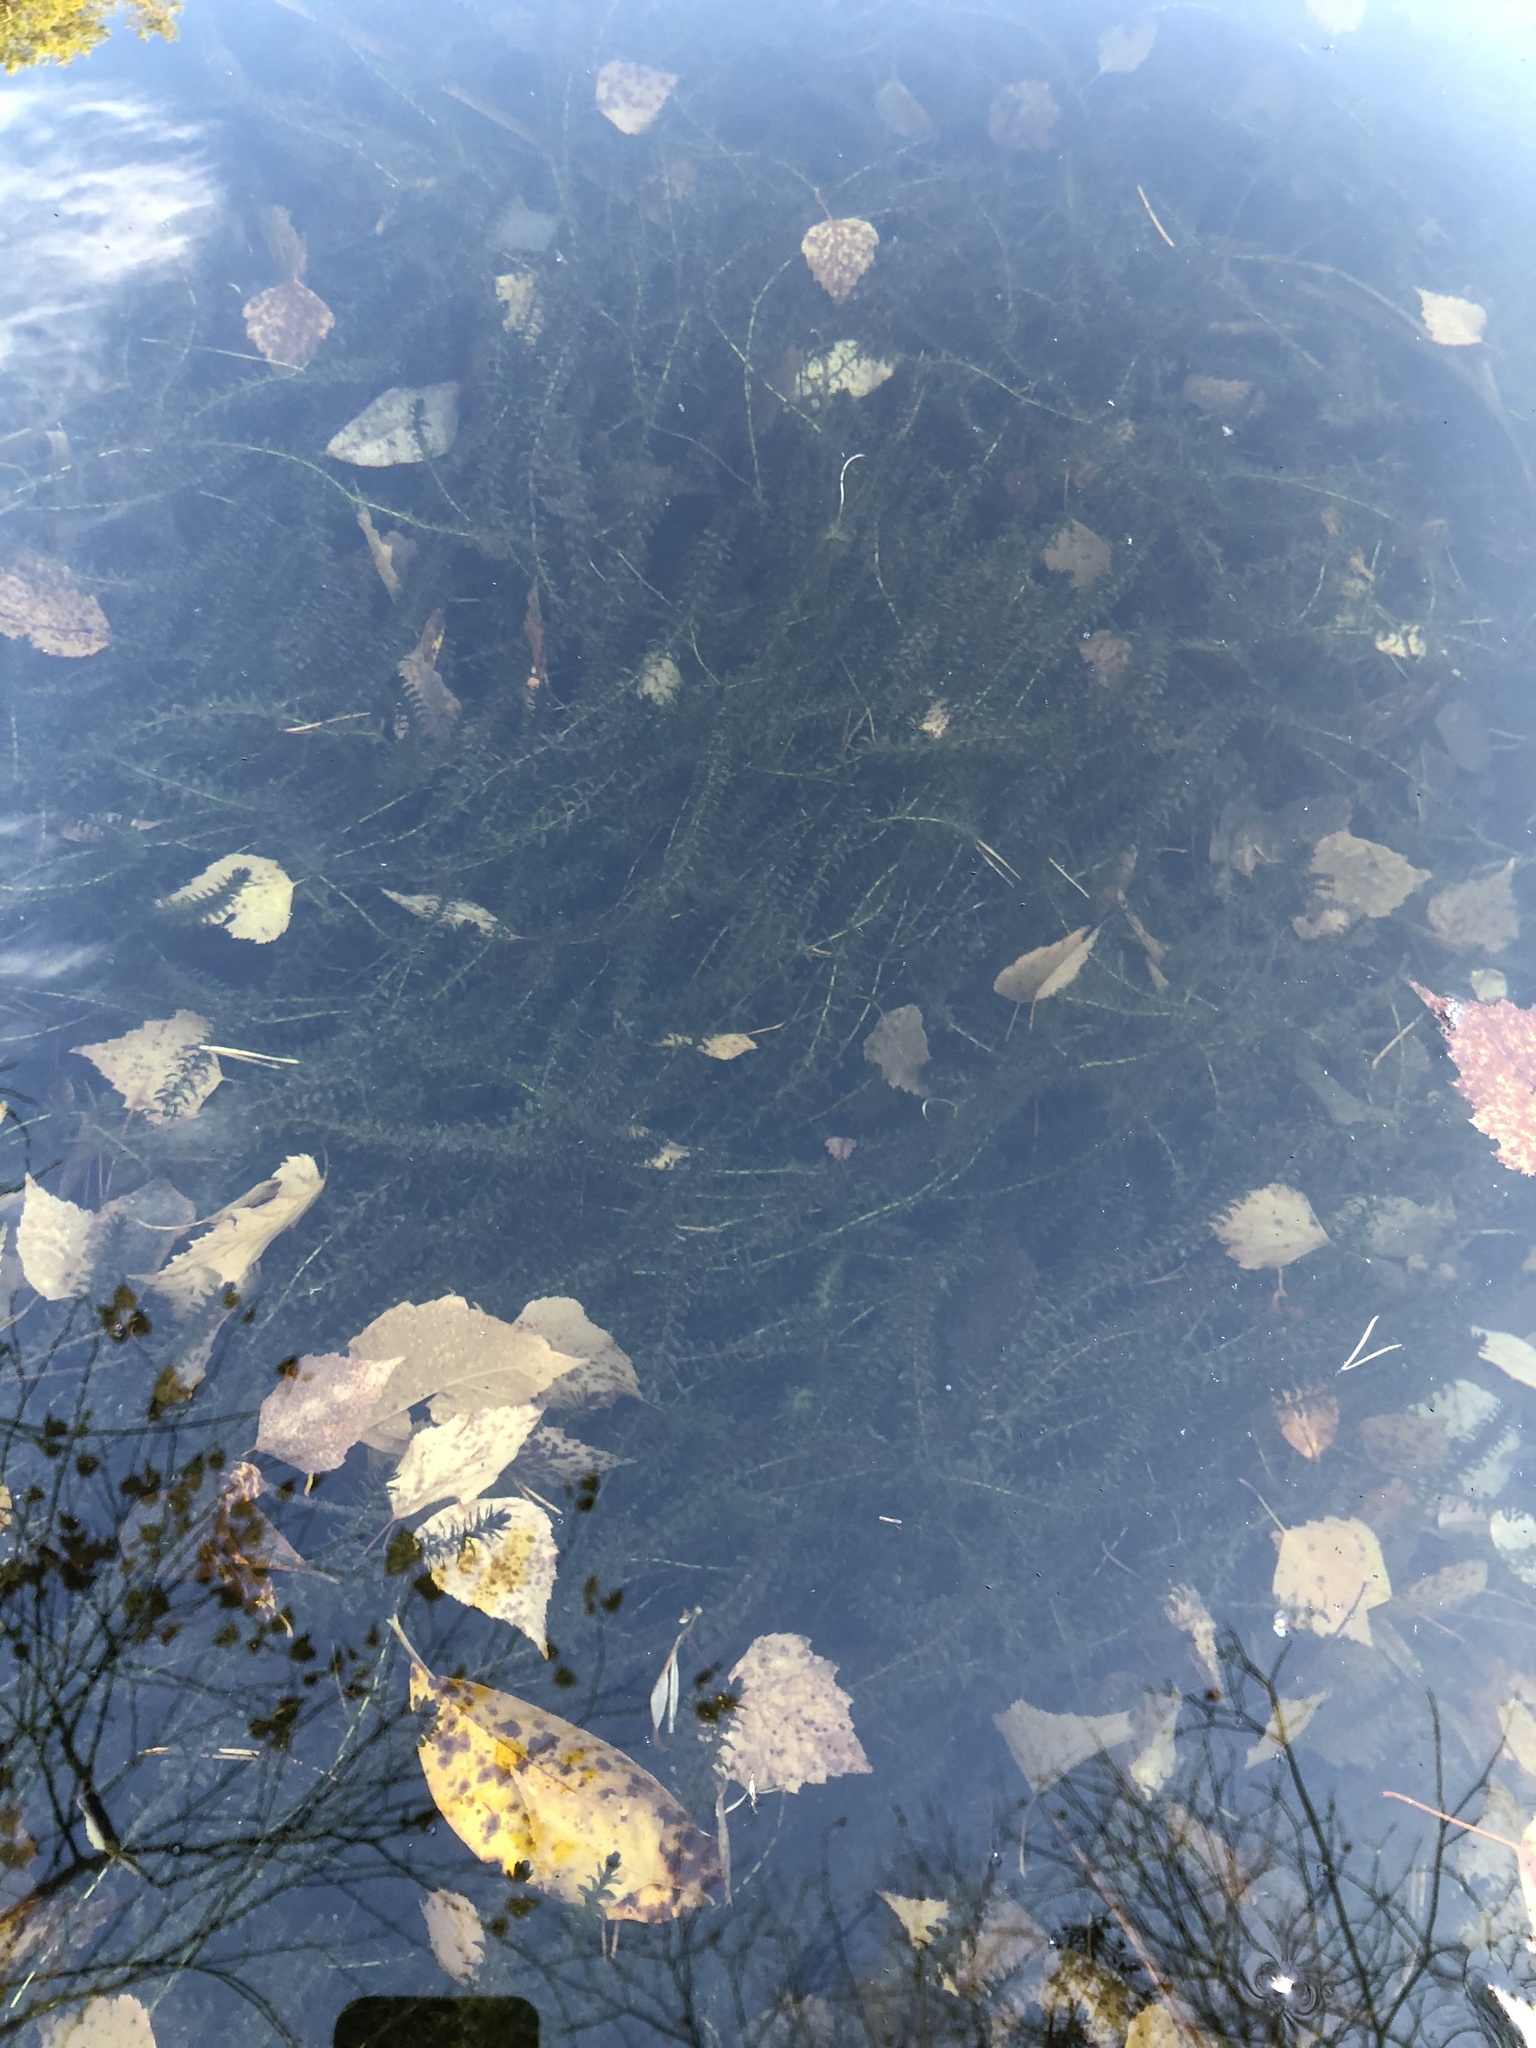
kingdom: Plantae
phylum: Tracheophyta
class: Liliopsida
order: Alismatales
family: Hydrocharitaceae
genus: Elodea
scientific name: Elodea canadensis
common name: Canadian waterweed
